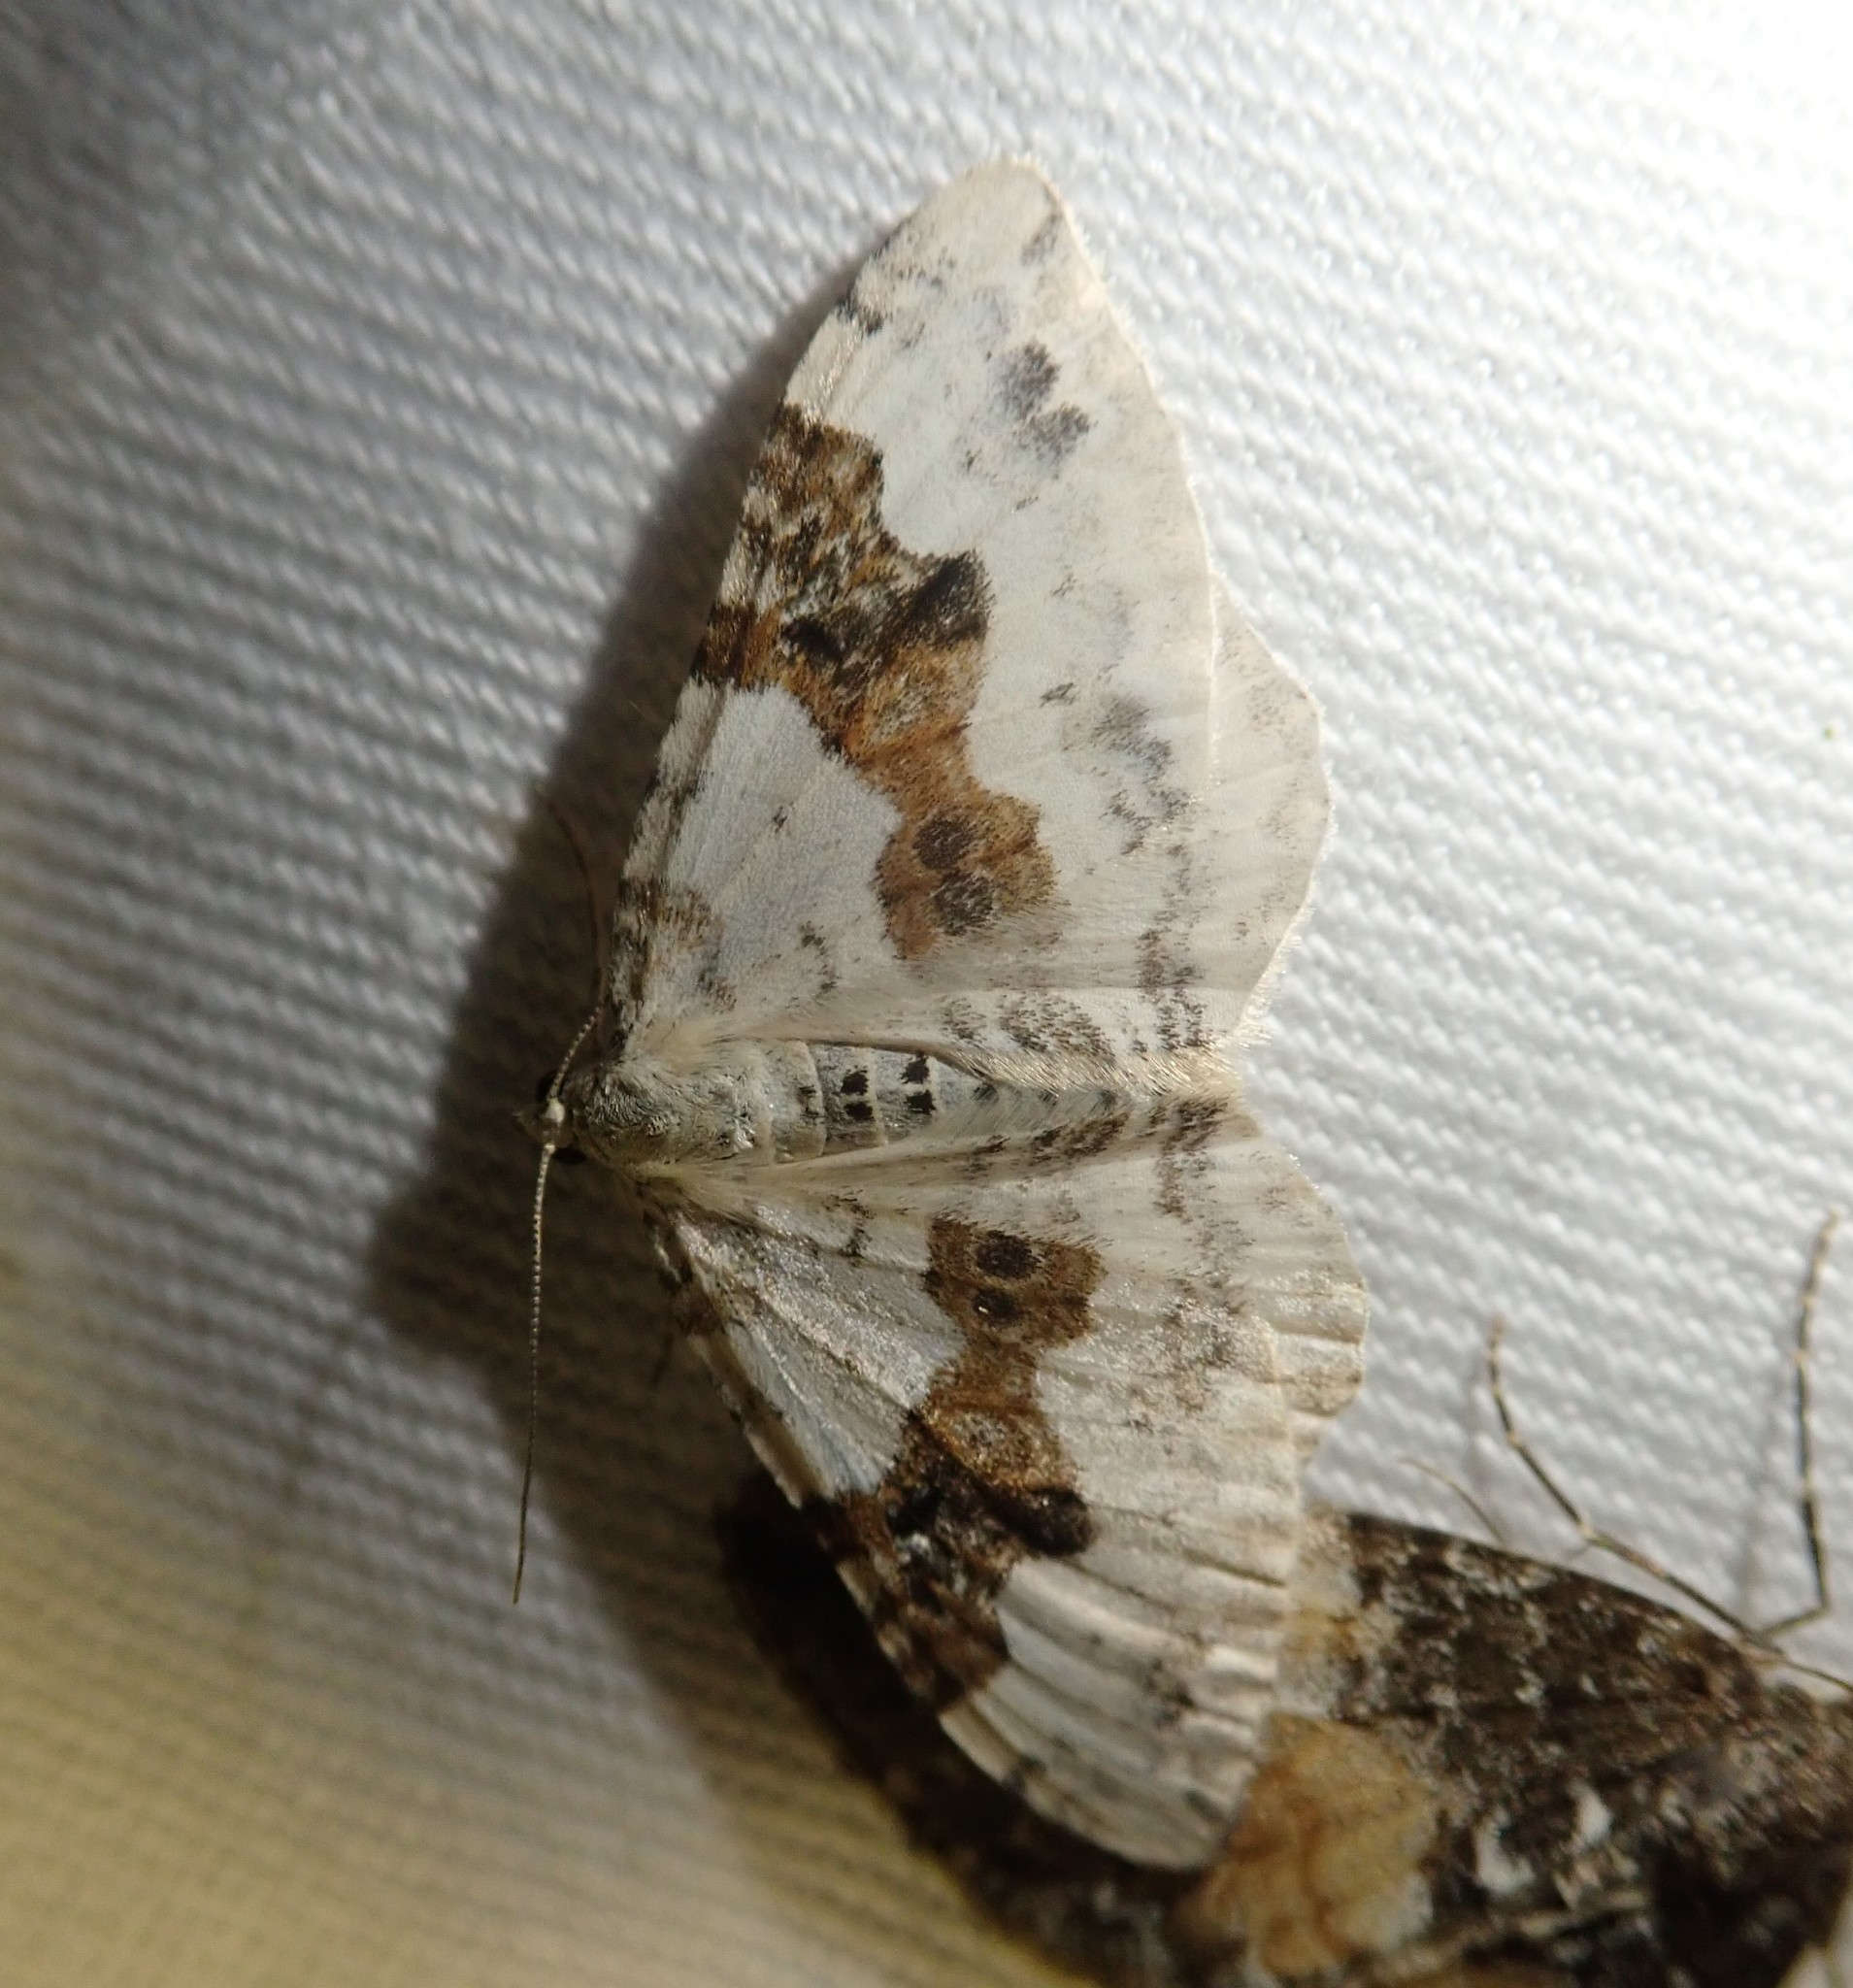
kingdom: Animalia
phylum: Arthropoda
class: Insecta
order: Lepidoptera
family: Geometridae
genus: Xanthorhoe
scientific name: Xanthorhoe montanata
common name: Silver-ground carpet
